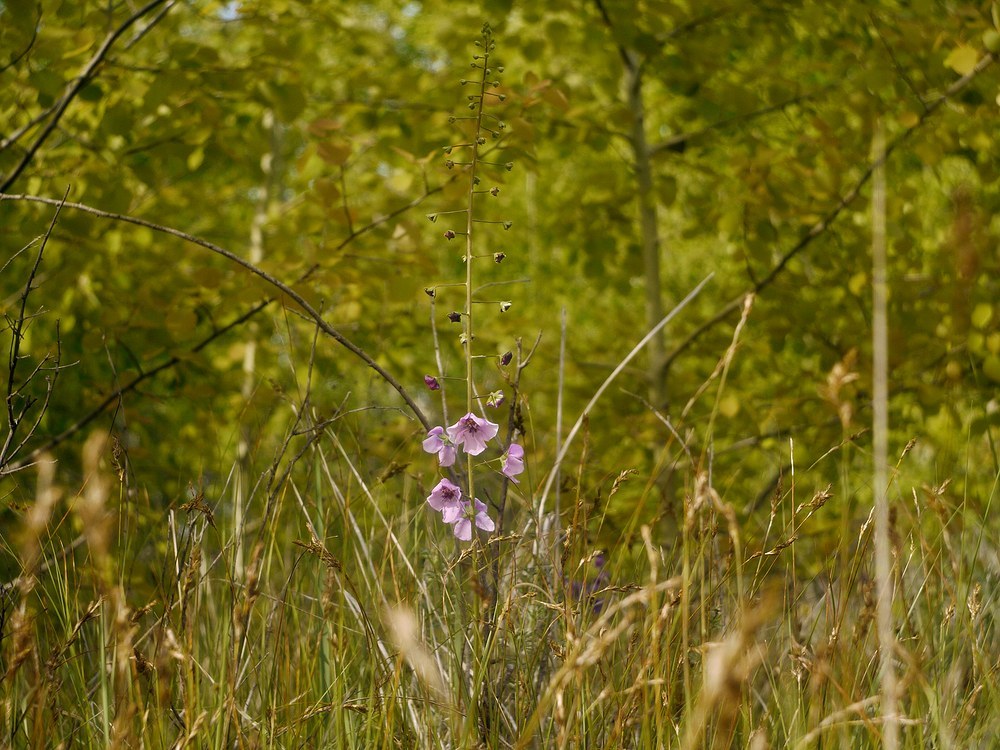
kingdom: Plantae
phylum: Tracheophyta
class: Magnoliopsida
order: Lamiales
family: Scrophulariaceae
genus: Verbascum
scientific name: Verbascum phoeniceum
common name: Purple mullein
